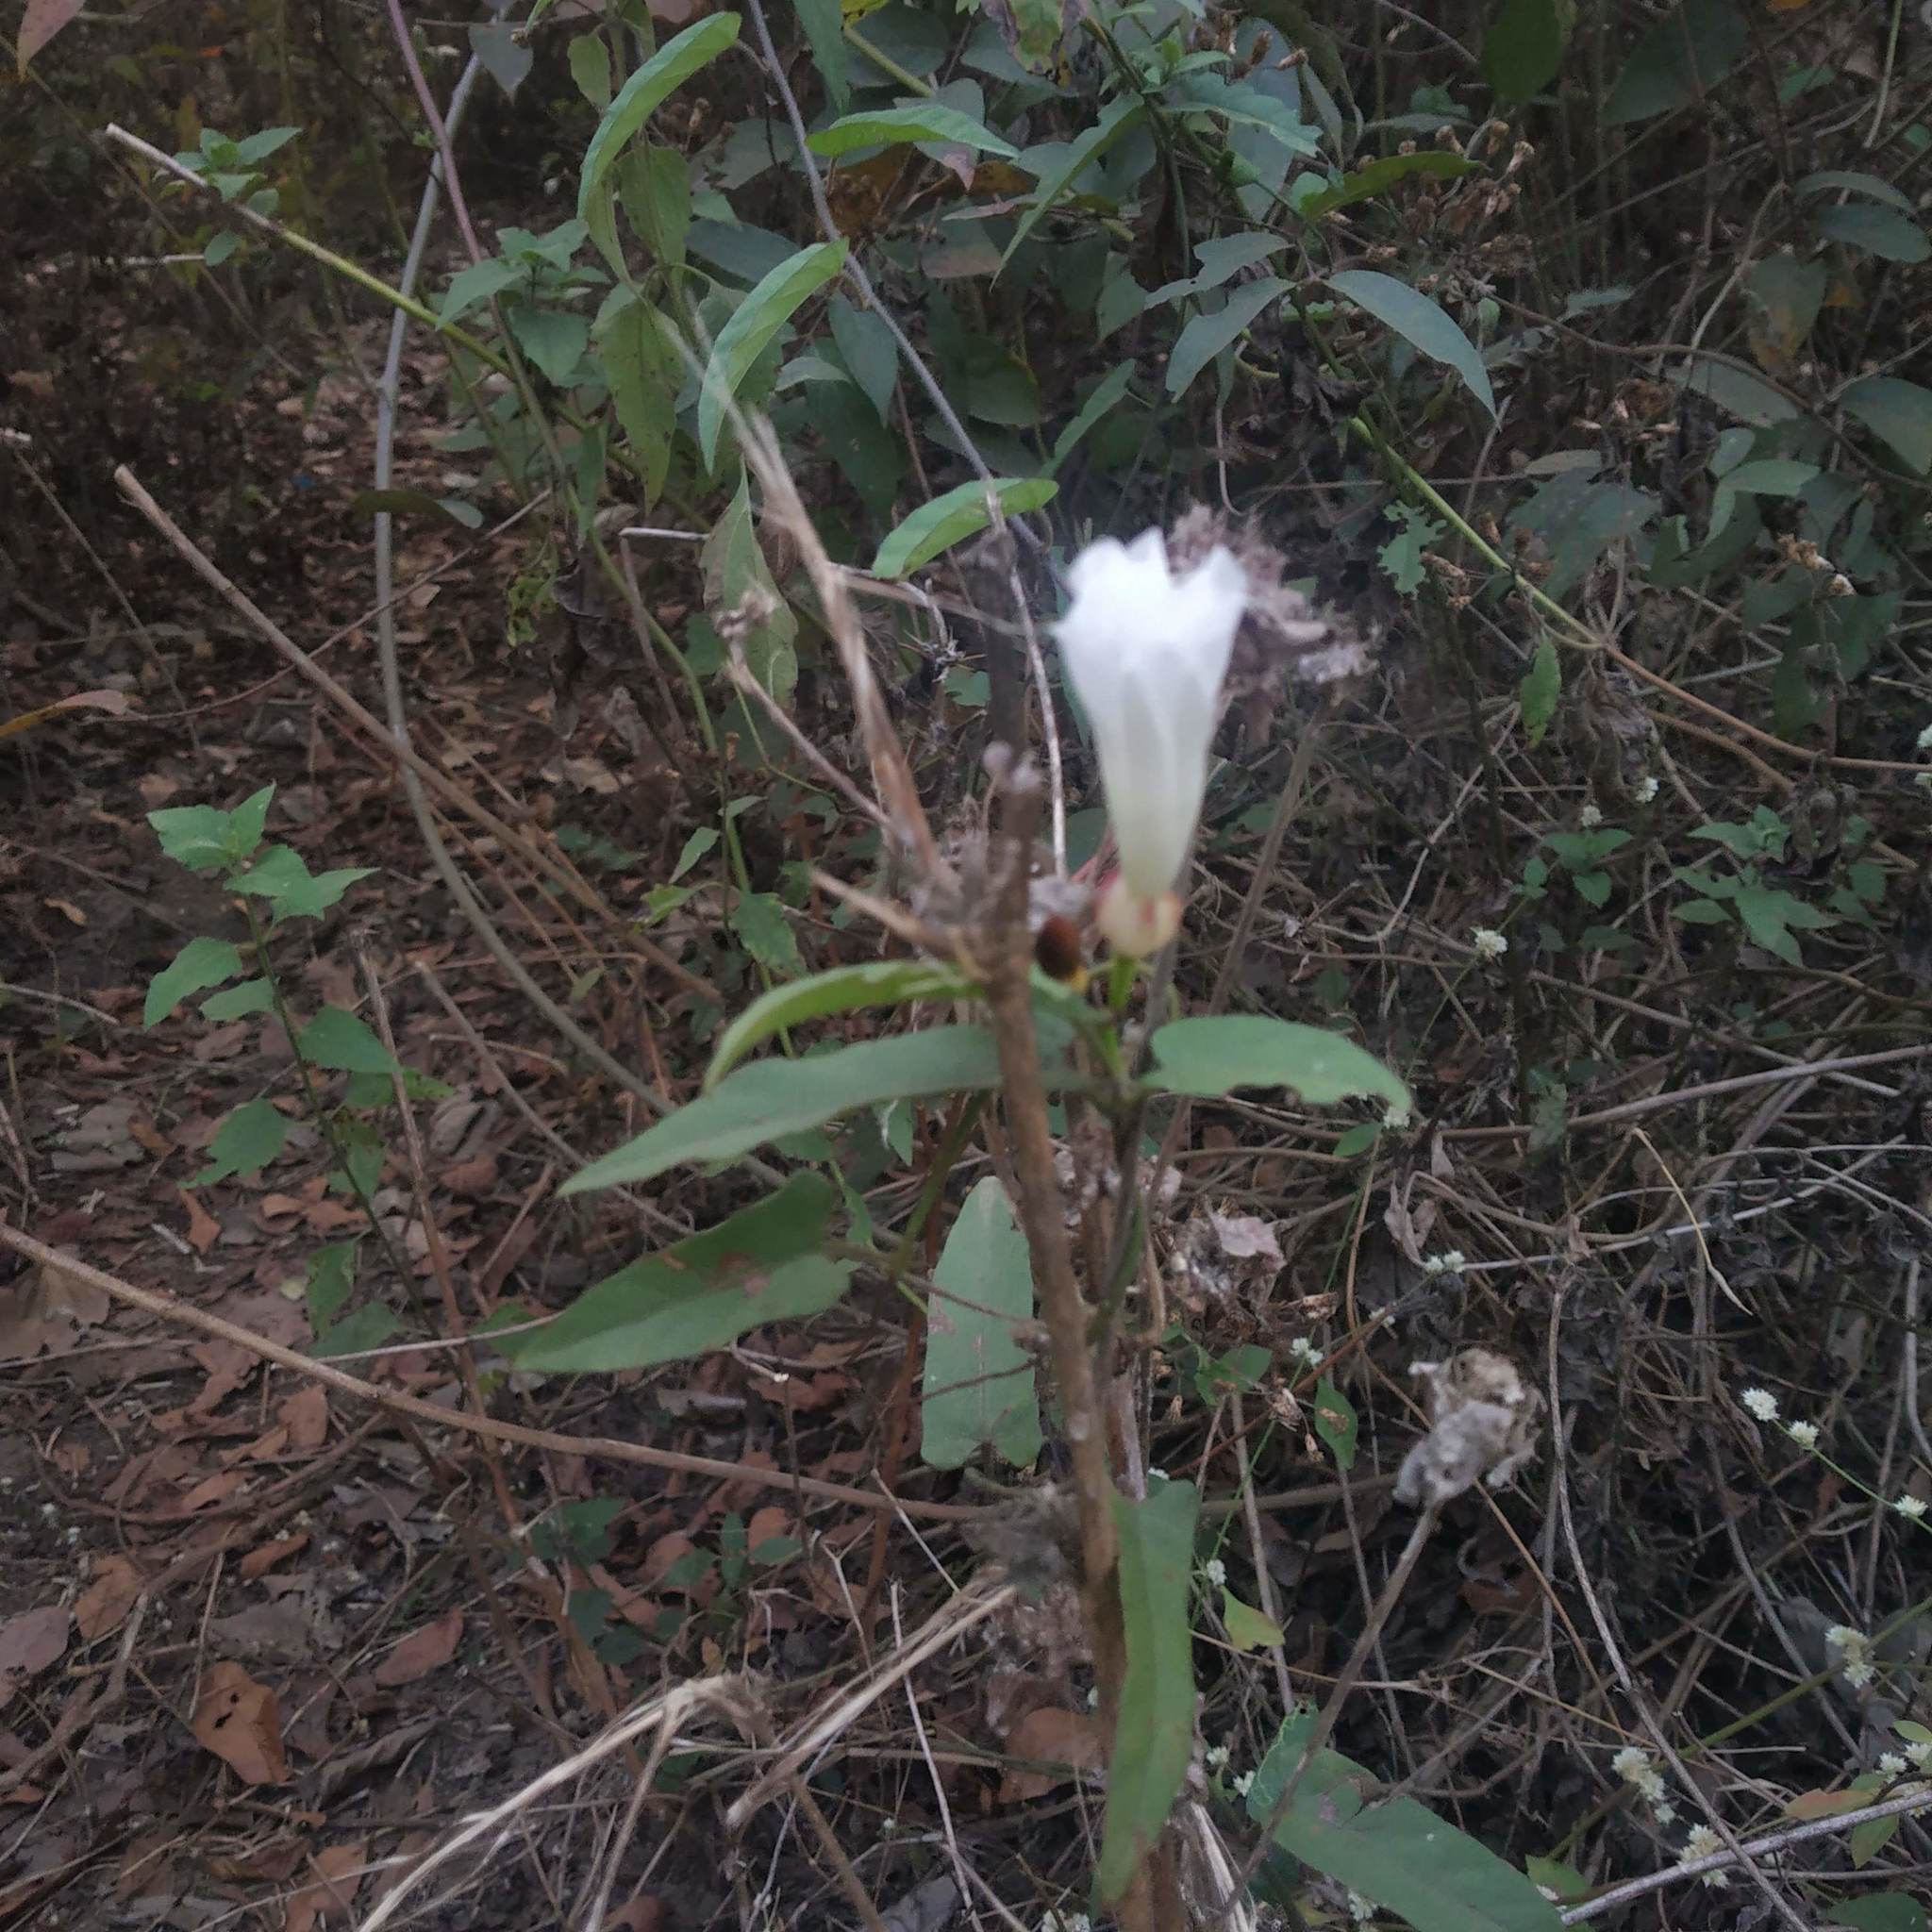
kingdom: Plantae
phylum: Tracheophyta
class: Magnoliopsida
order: Solanales
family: Convolvulaceae
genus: Camonea
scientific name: Camonea umbellata
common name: Hogvine
